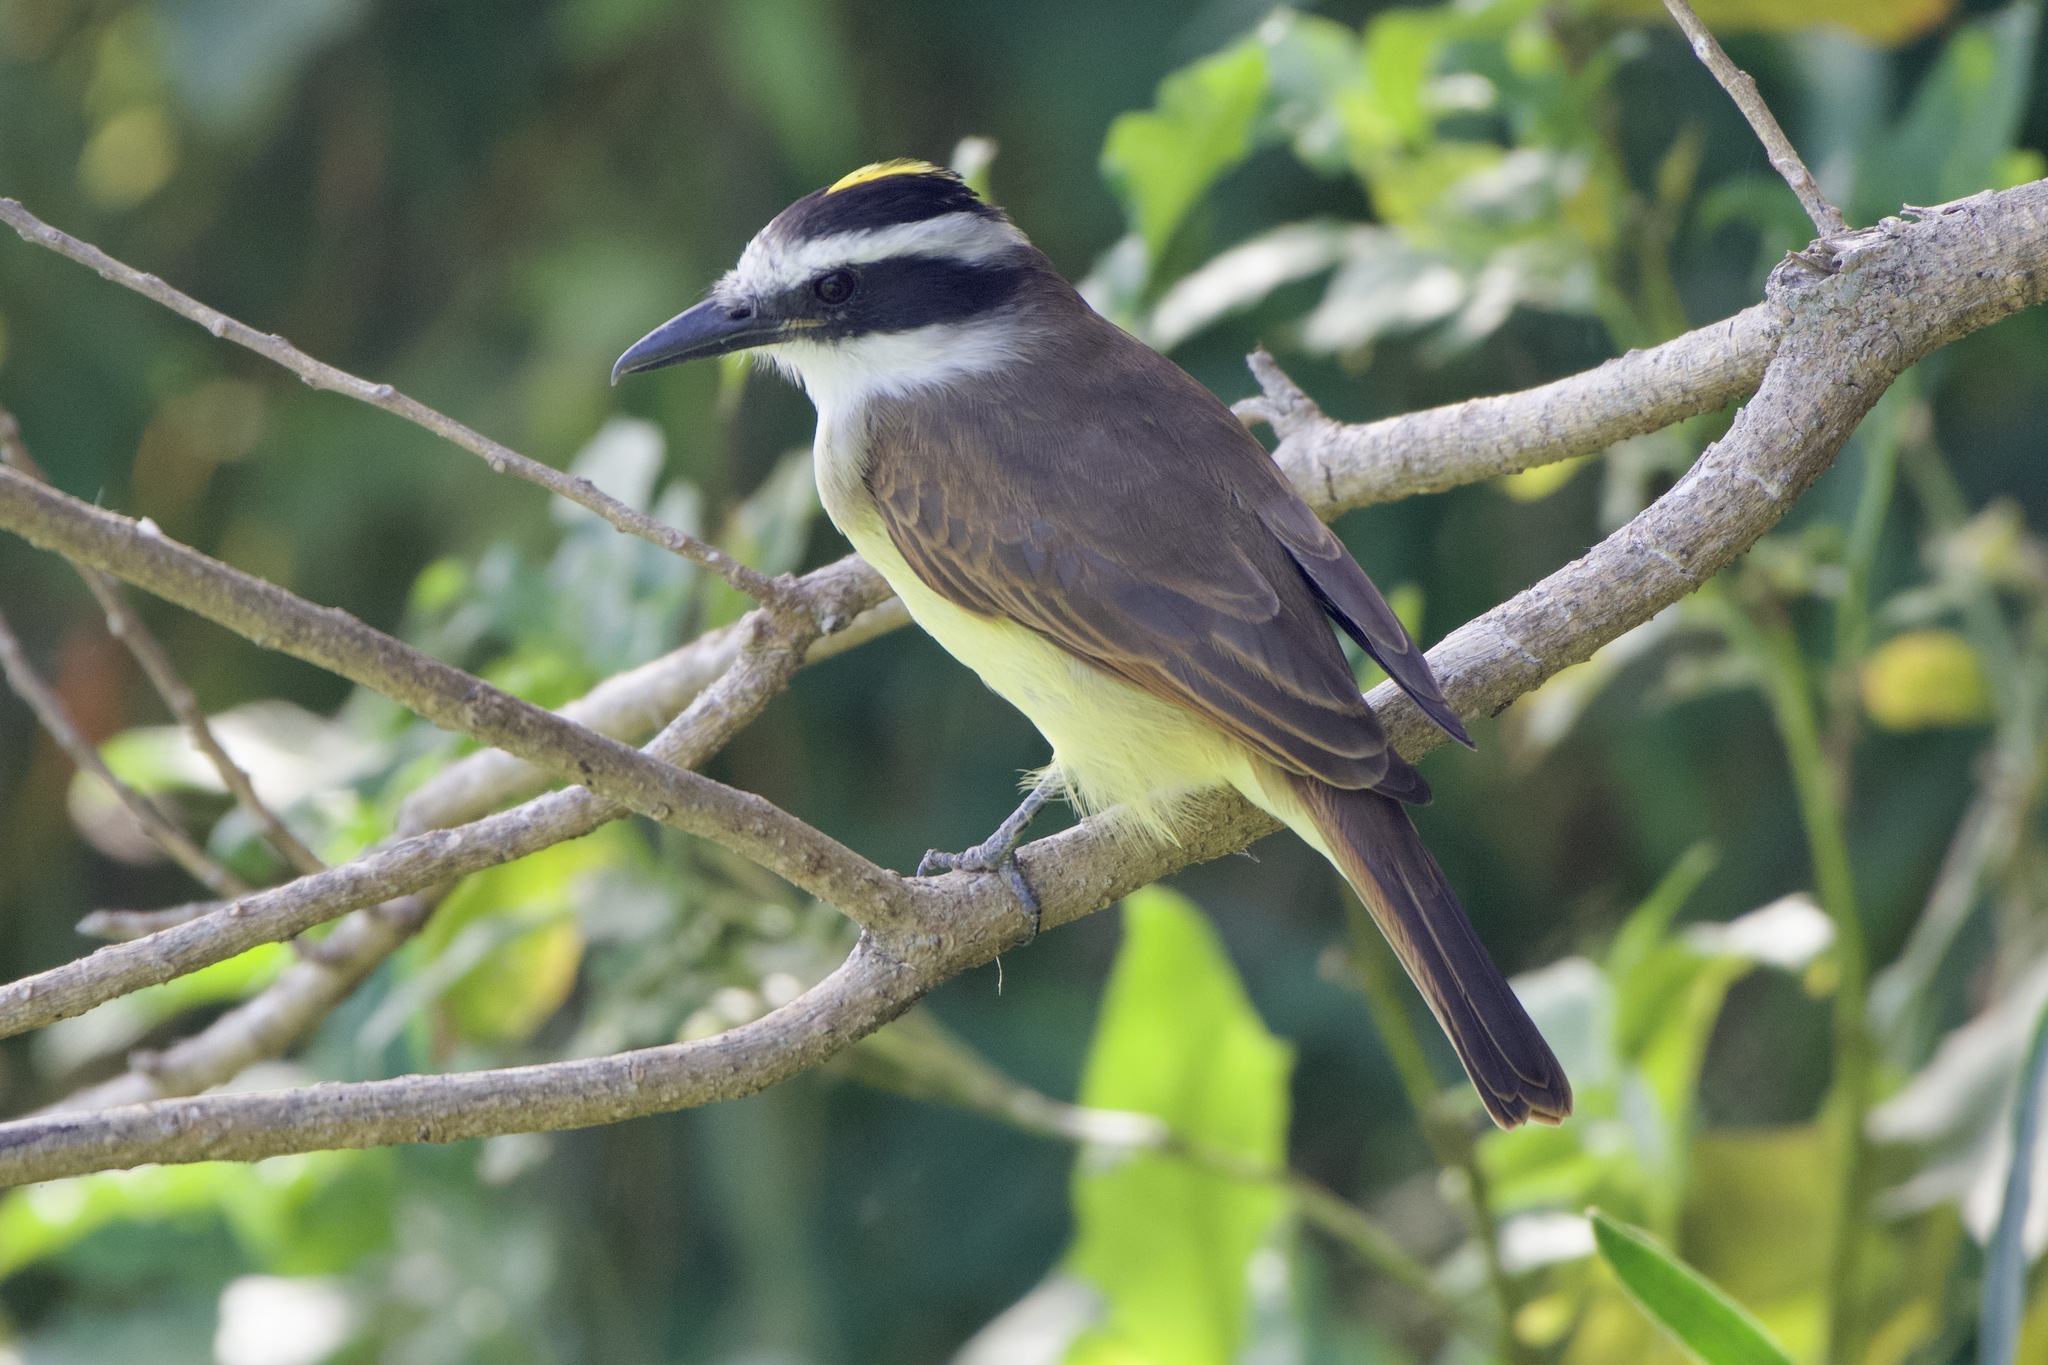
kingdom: Animalia
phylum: Chordata
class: Aves
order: Passeriformes
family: Tyrannidae
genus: Pitangus
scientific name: Pitangus sulphuratus
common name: Great kiskadee
